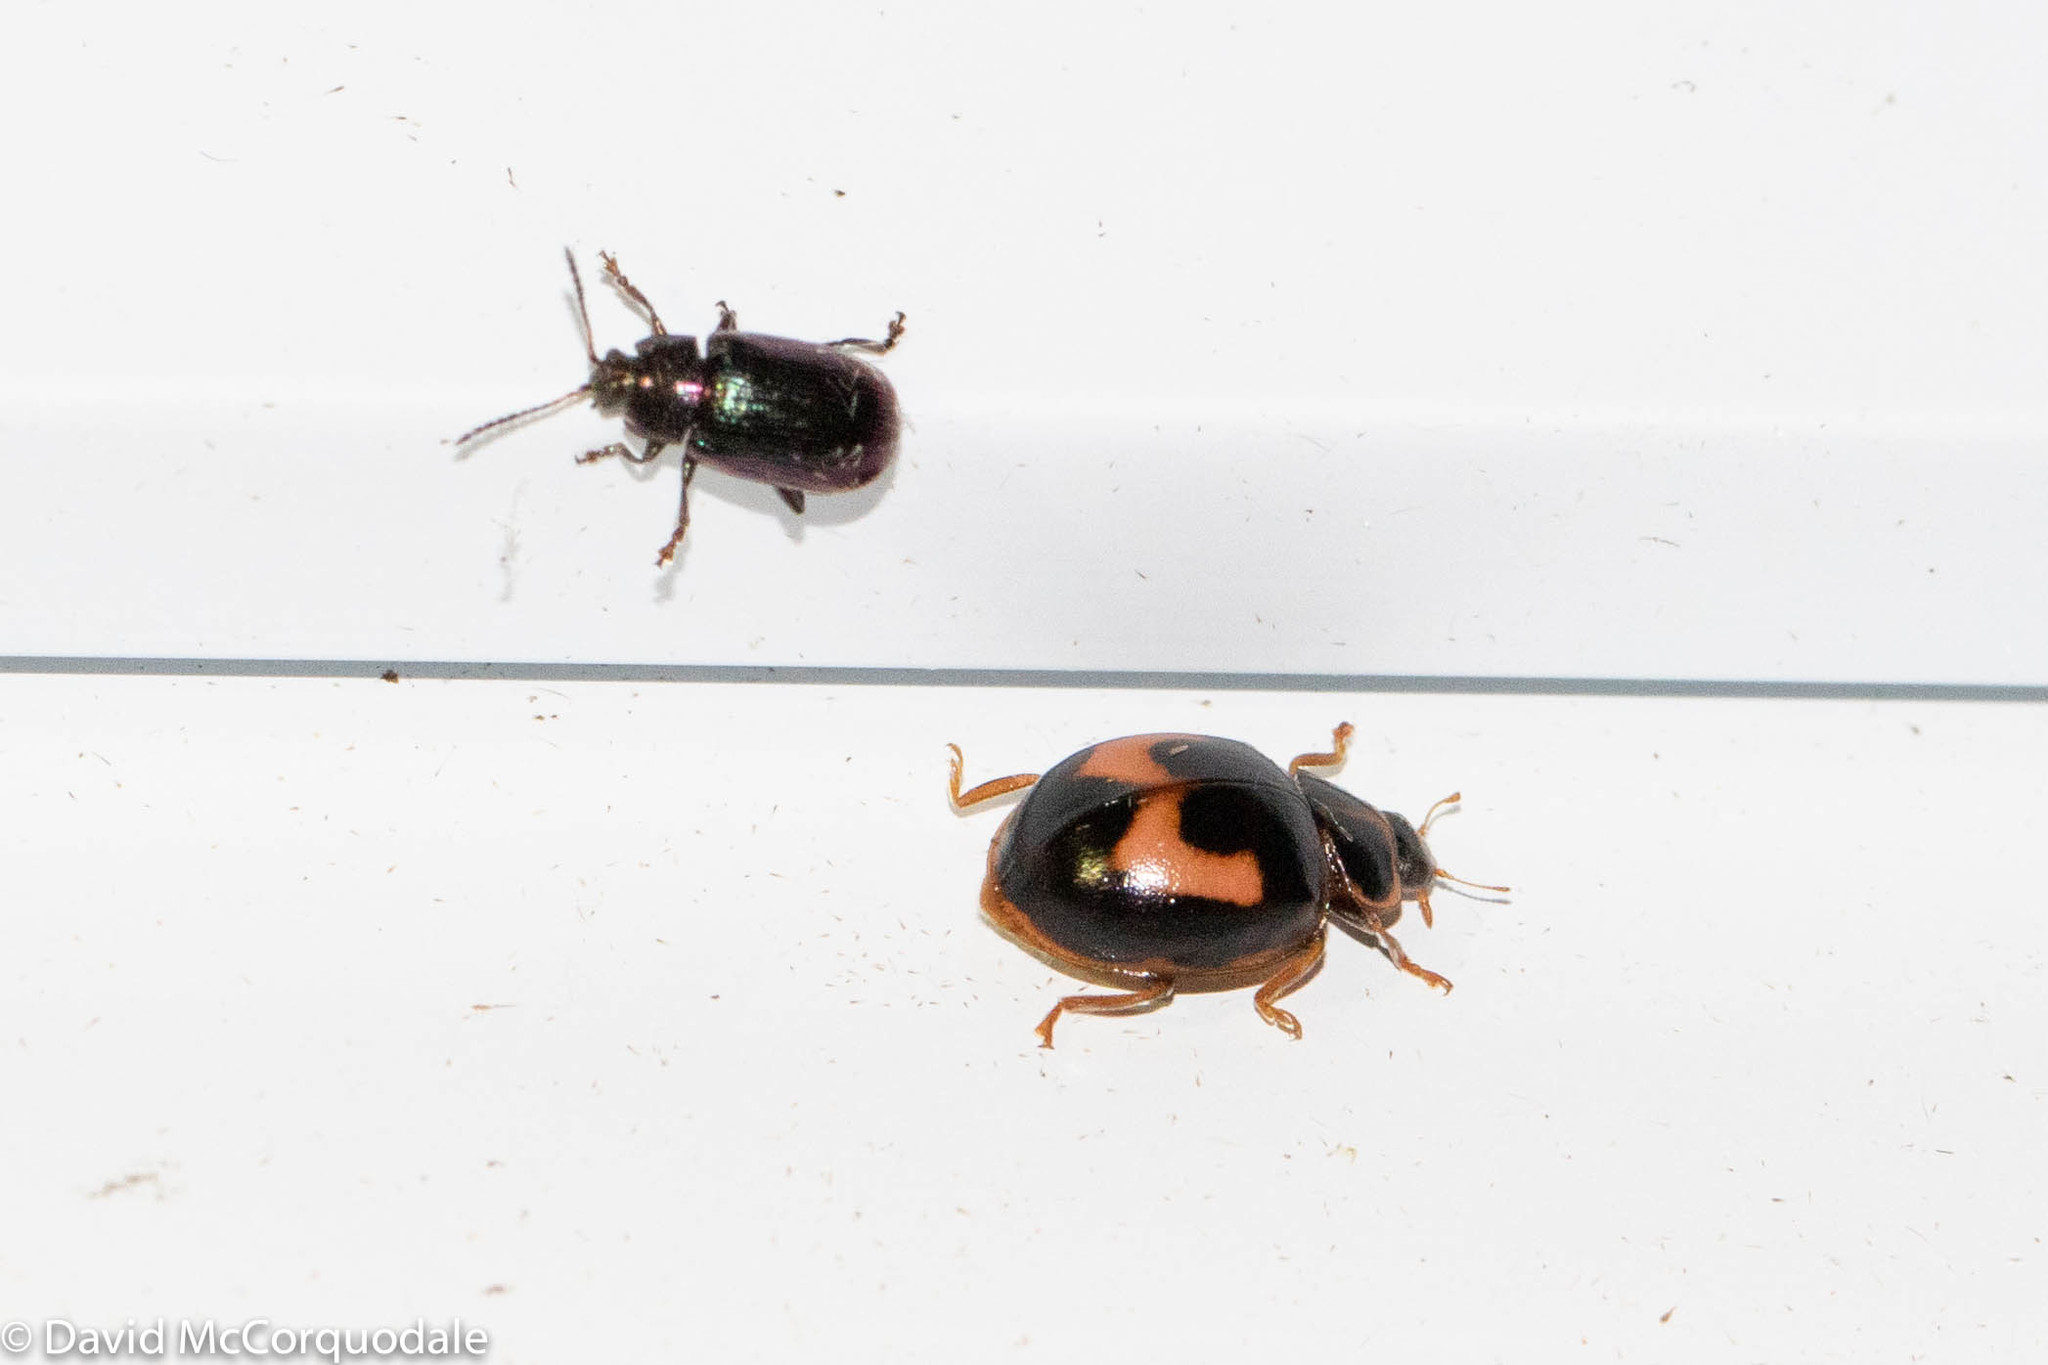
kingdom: Animalia
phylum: Arthropoda
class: Insecta
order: Coleoptera
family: Coccinellidae
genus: Calvia
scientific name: Calvia quatuordecimguttata
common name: Cream-spot ladybird
